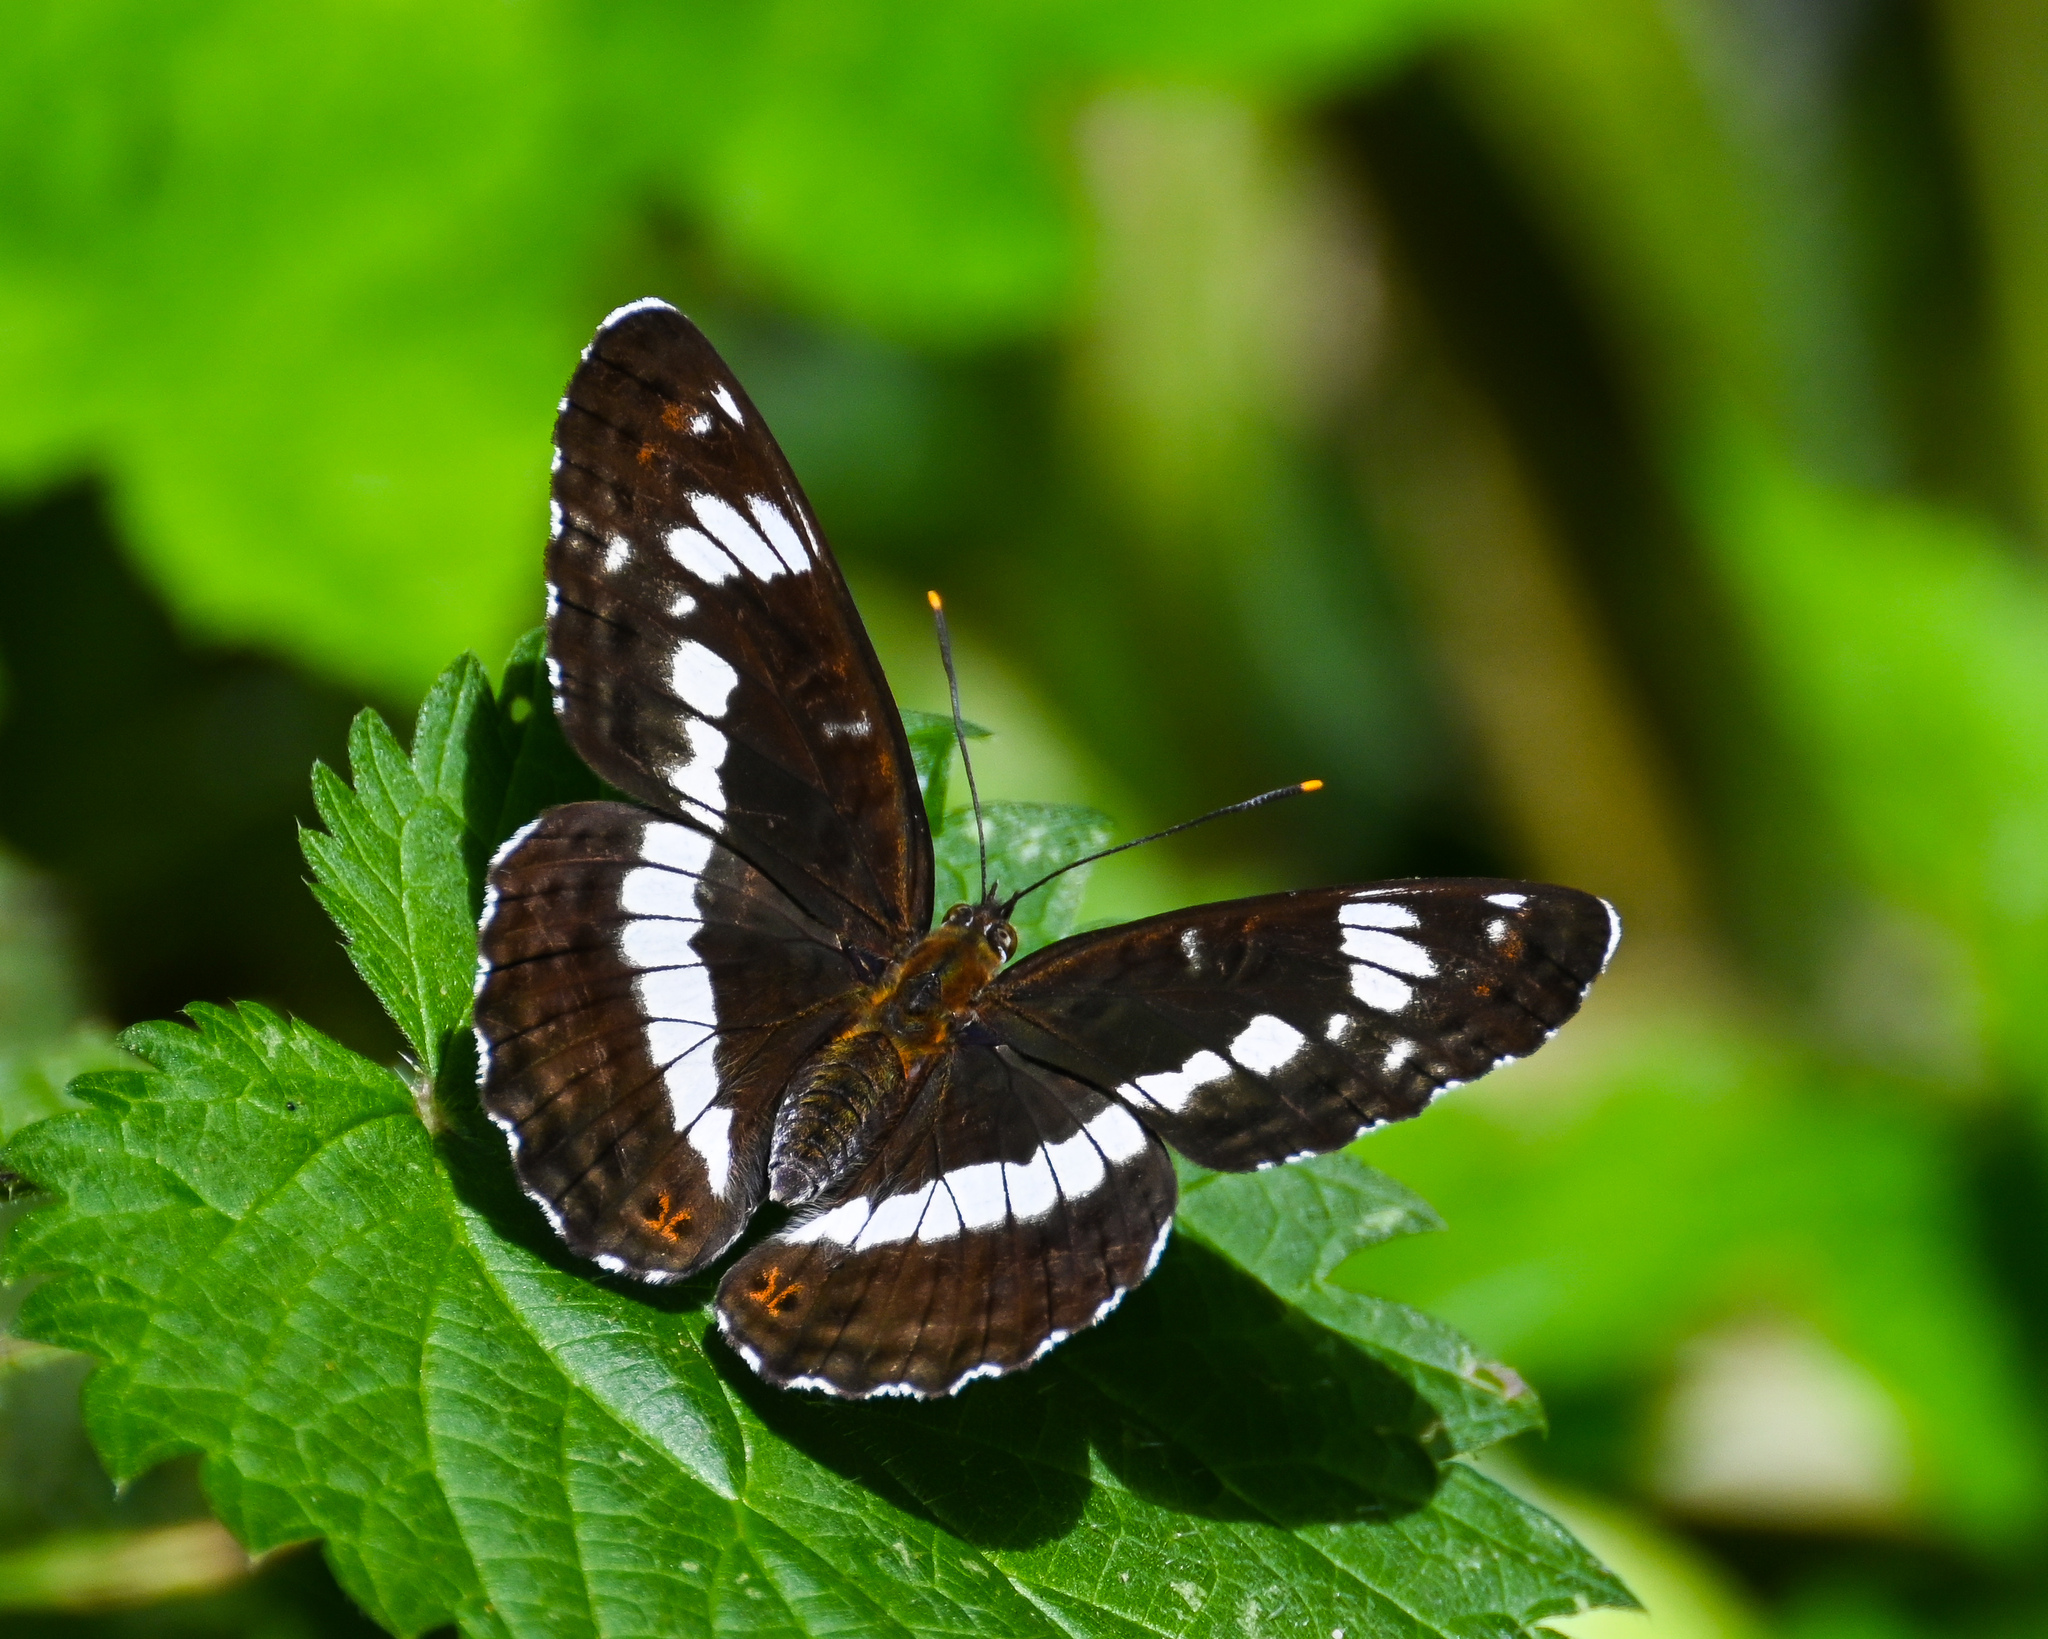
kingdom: Animalia
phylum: Arthropoda
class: Insecta
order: Lepidoptera
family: Nymphalidae
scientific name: Nymphalidae
